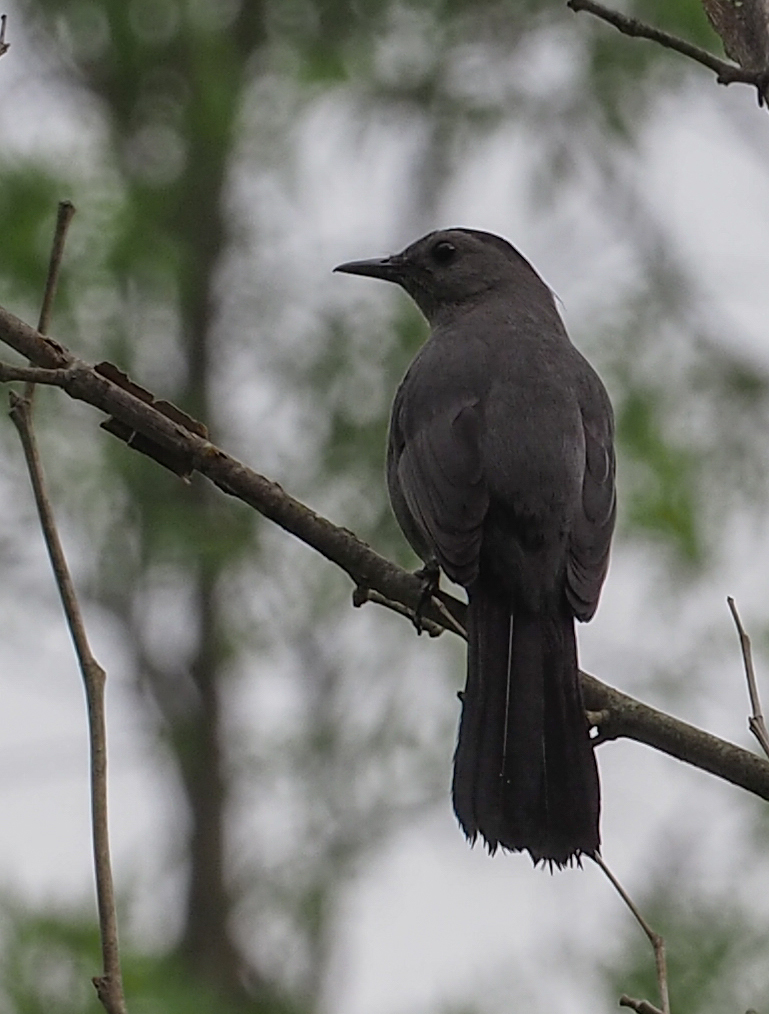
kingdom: Animalia
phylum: Chordata
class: Aves
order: Passeriformes
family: Mimidae
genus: Dumetella
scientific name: Dumetella carolinensis
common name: Gray catbird
